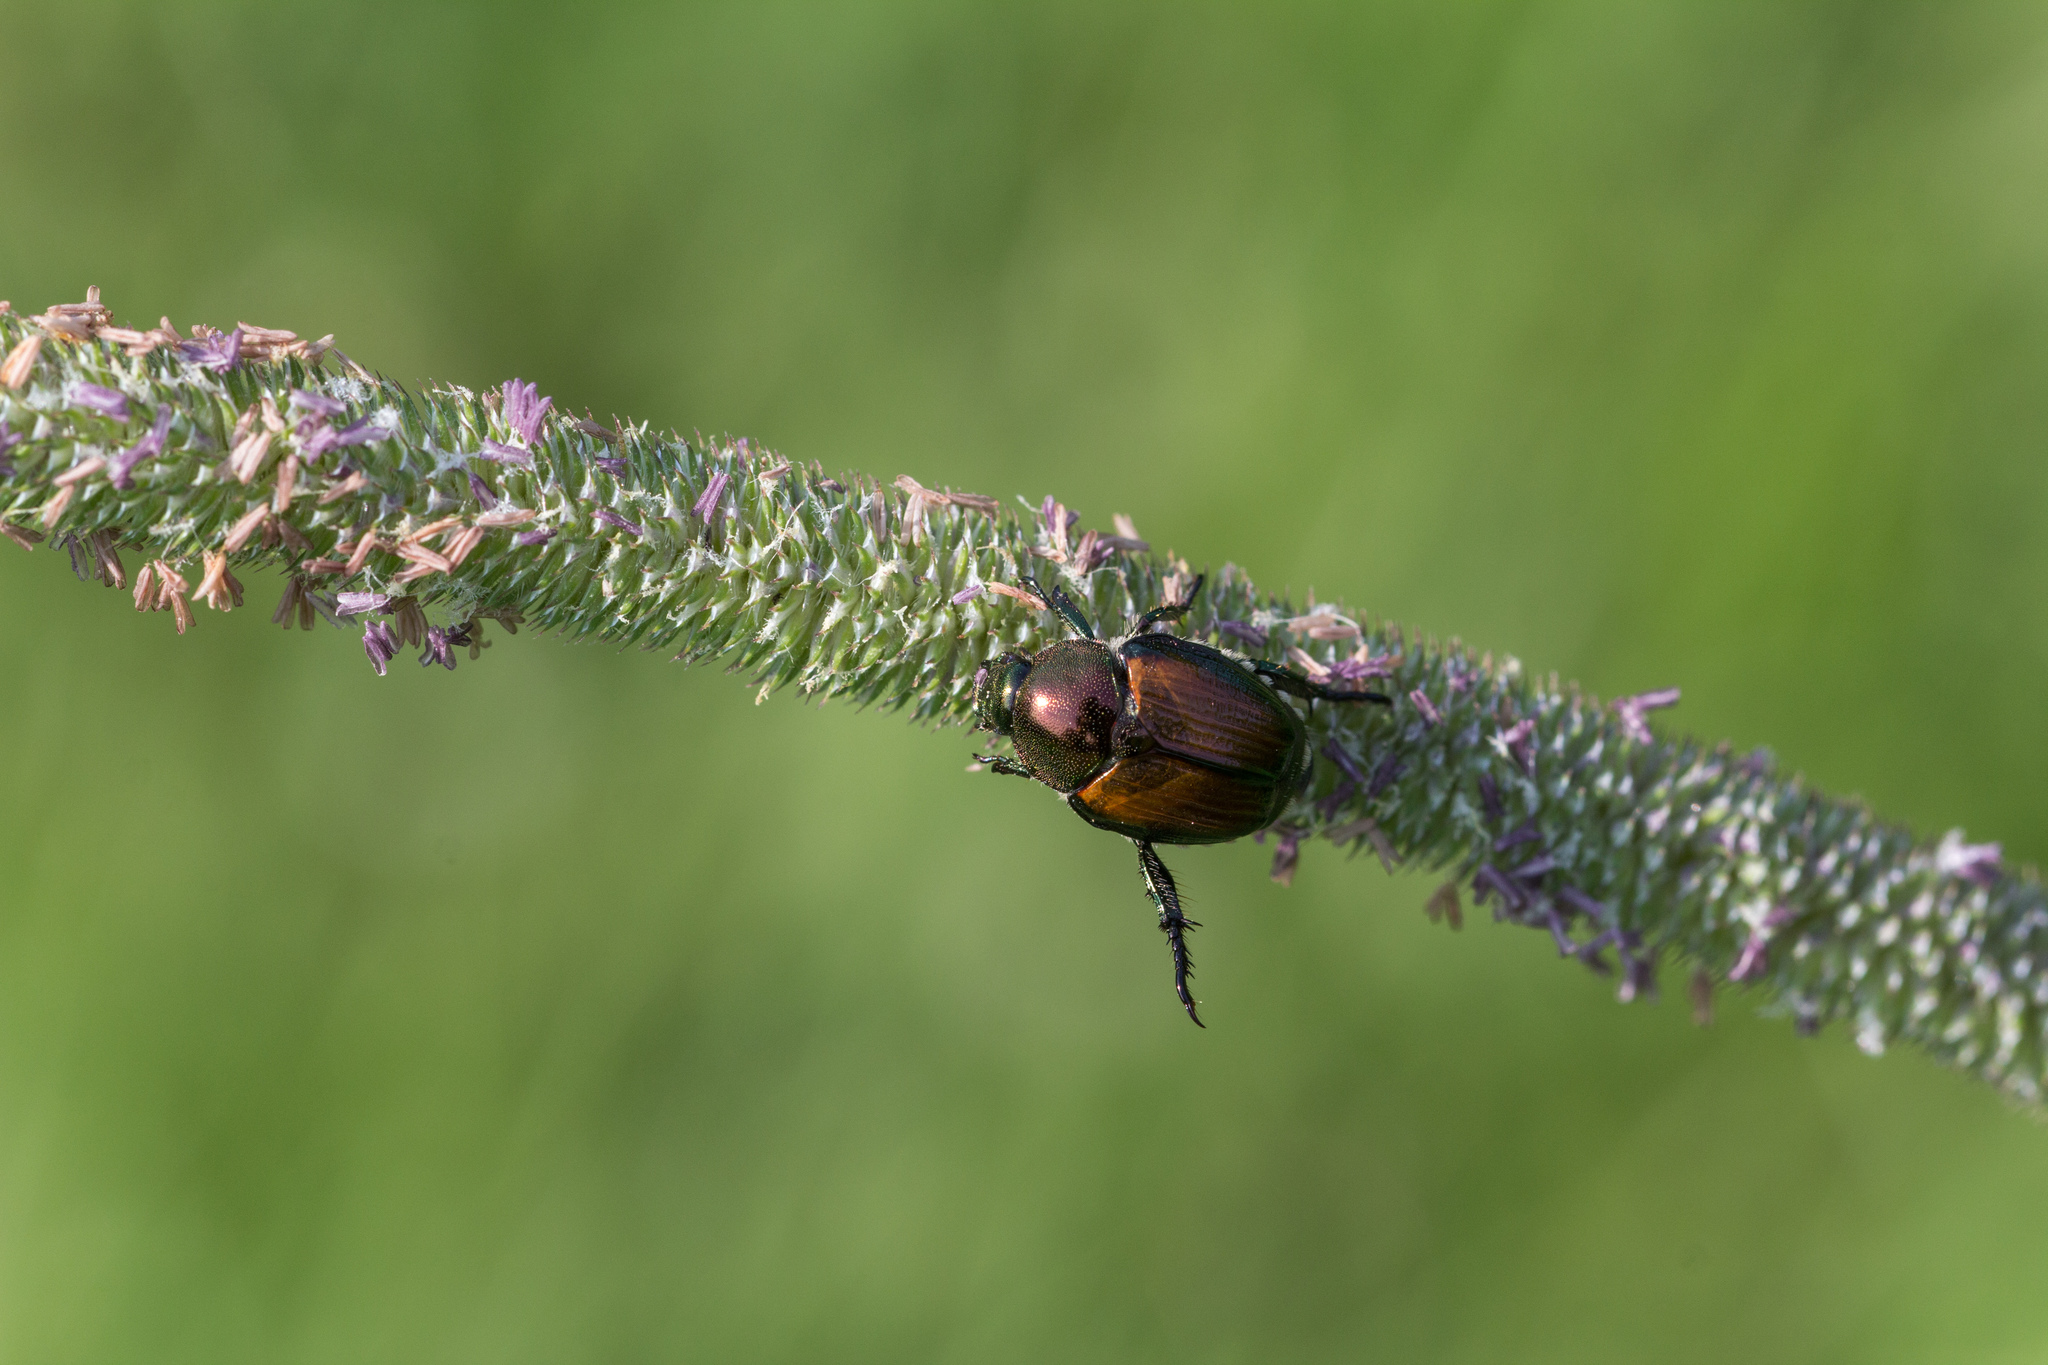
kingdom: Animalia
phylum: Arthropoda
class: Insecta
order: Coleoptera
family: Scarabaeidae
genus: Popillia
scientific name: Popillia japonica
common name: Japanese beetle
